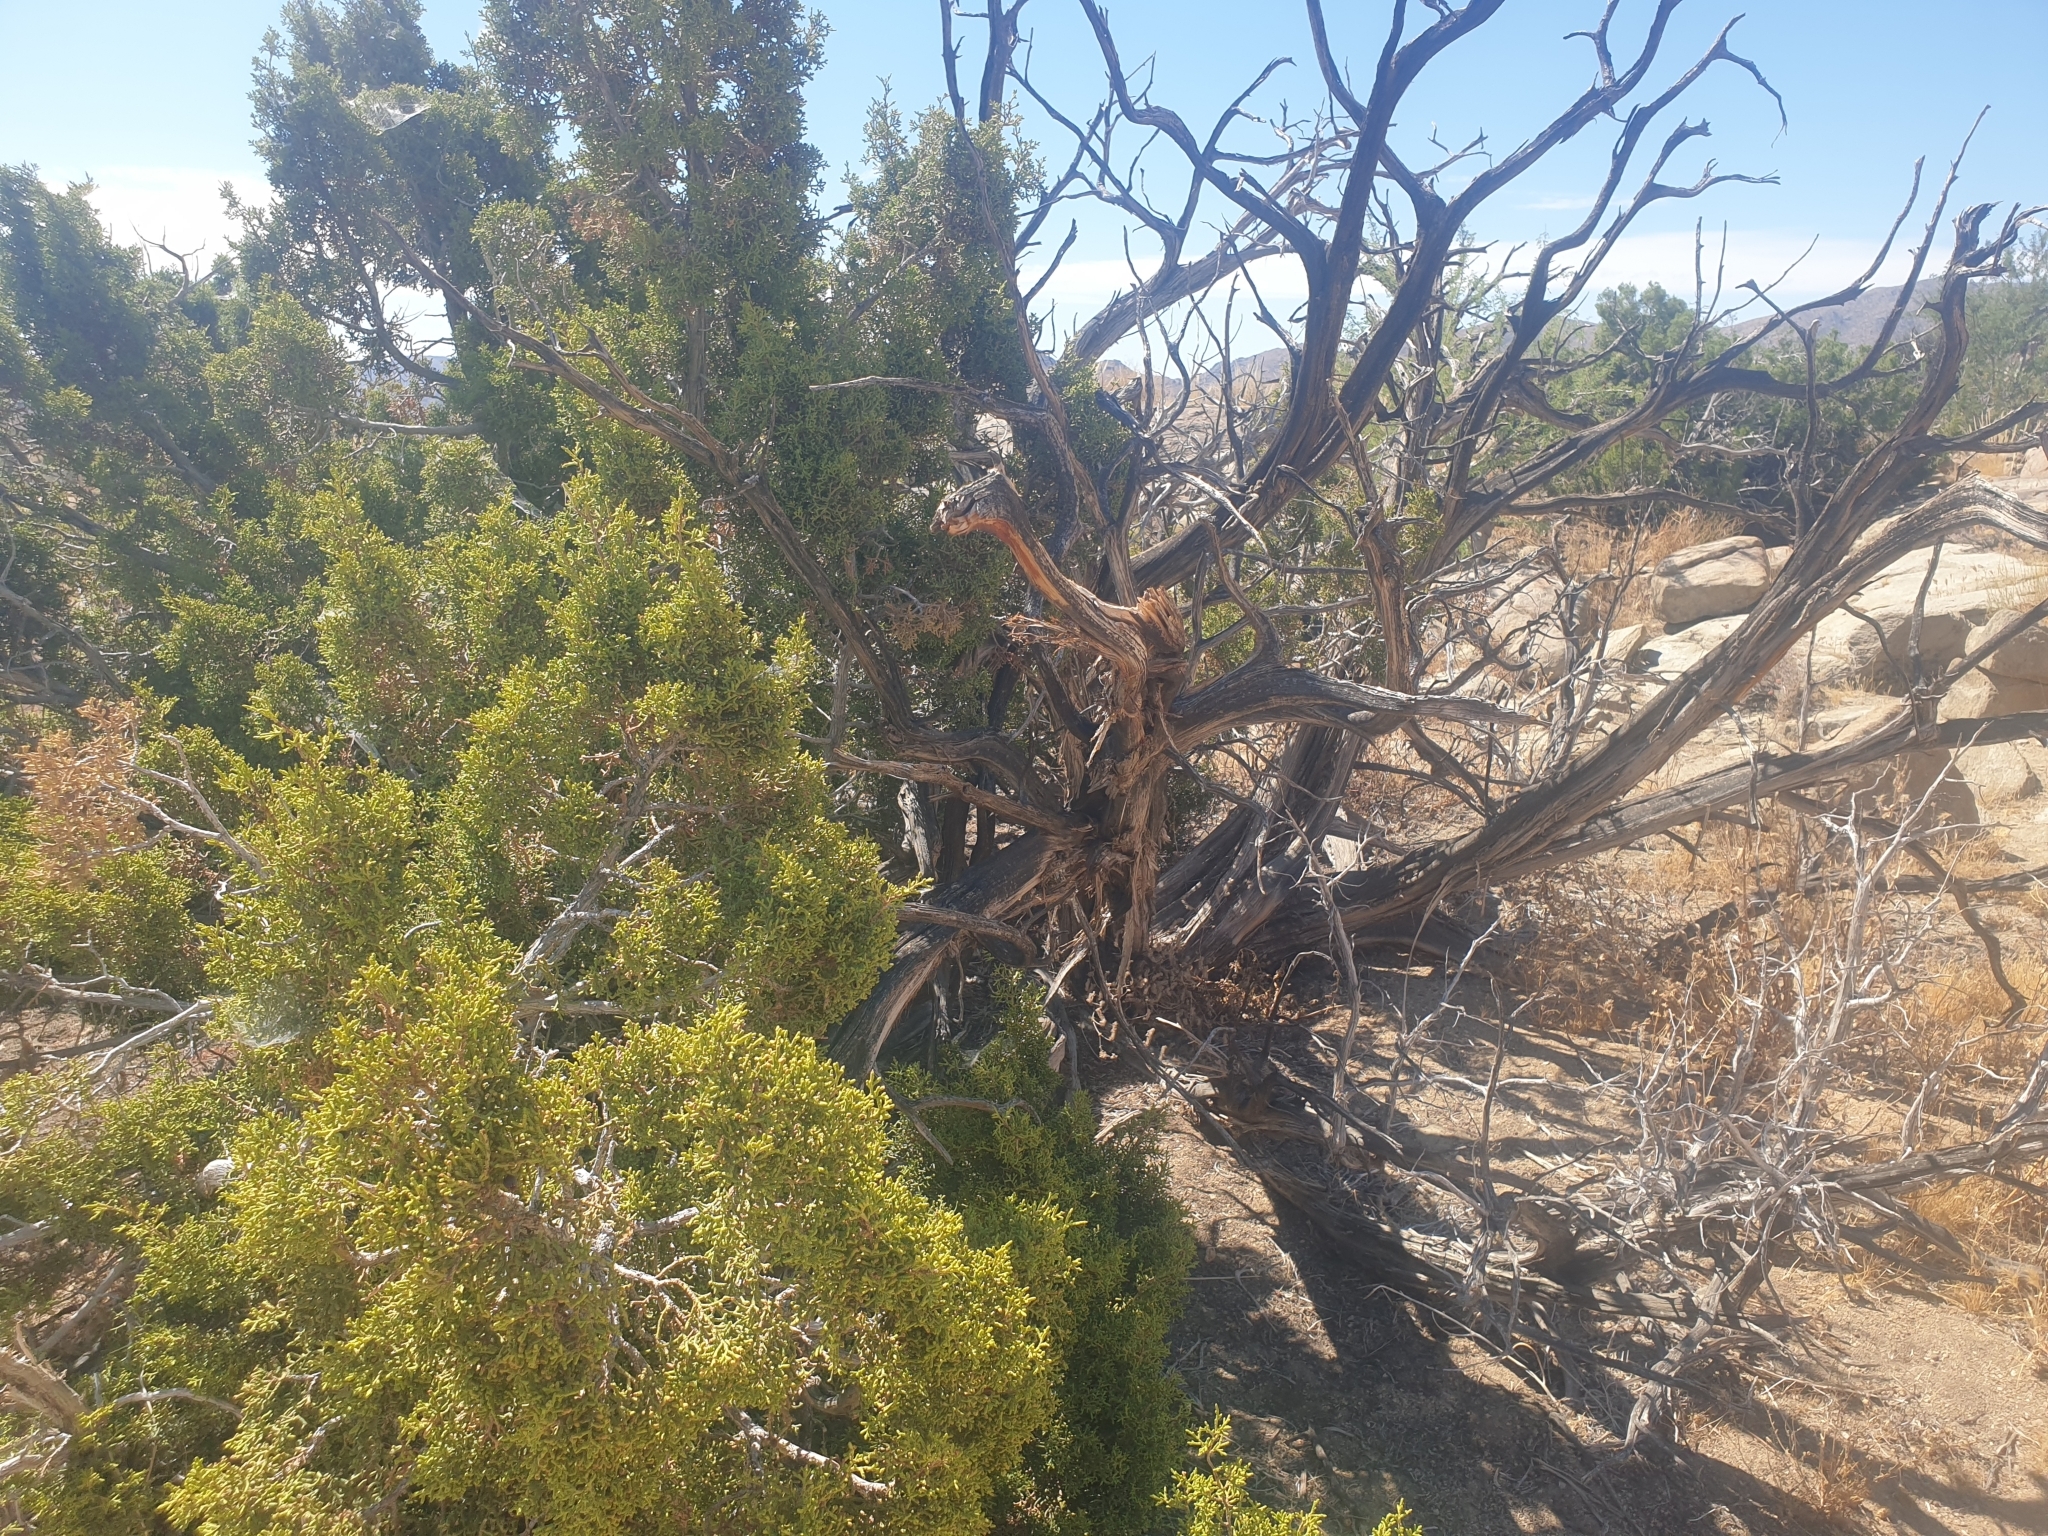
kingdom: Plantae
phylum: Tracheophyta
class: Pinopsida
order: Pinales
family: Cupressaceae
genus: Juniperus
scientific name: Juniperus californica
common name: California juniper
